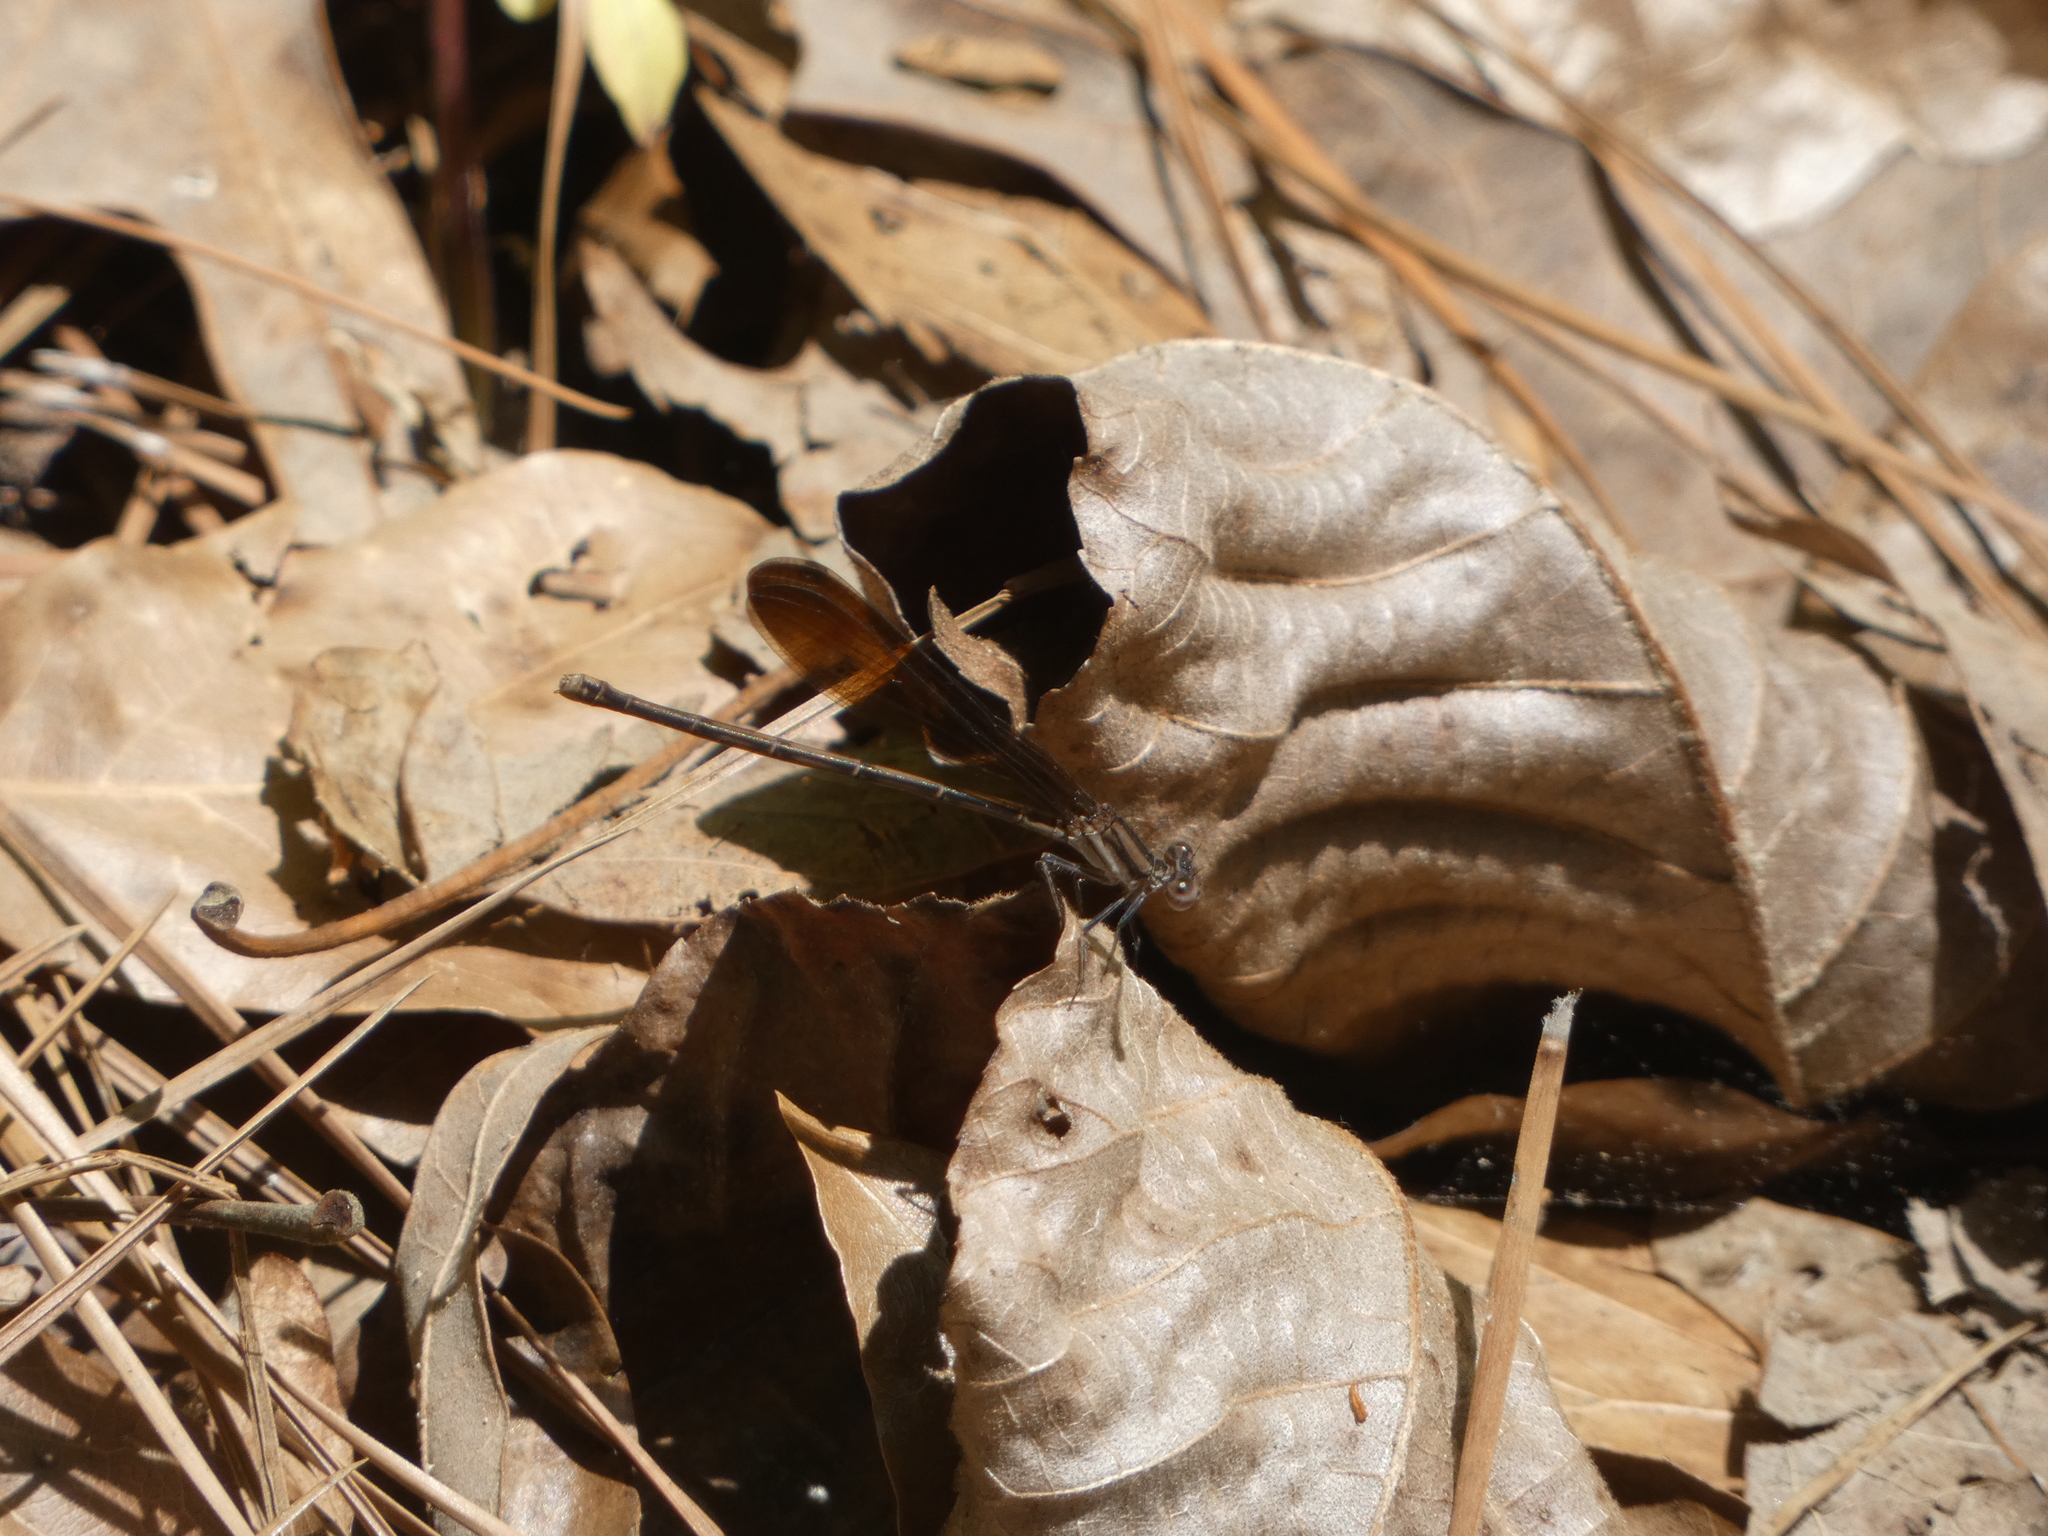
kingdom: Animalia
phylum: Arthropoda
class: Insecta
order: Odonata
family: Coenagrionidae
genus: Argia
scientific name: Argia fumipennis
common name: Variable dancer
